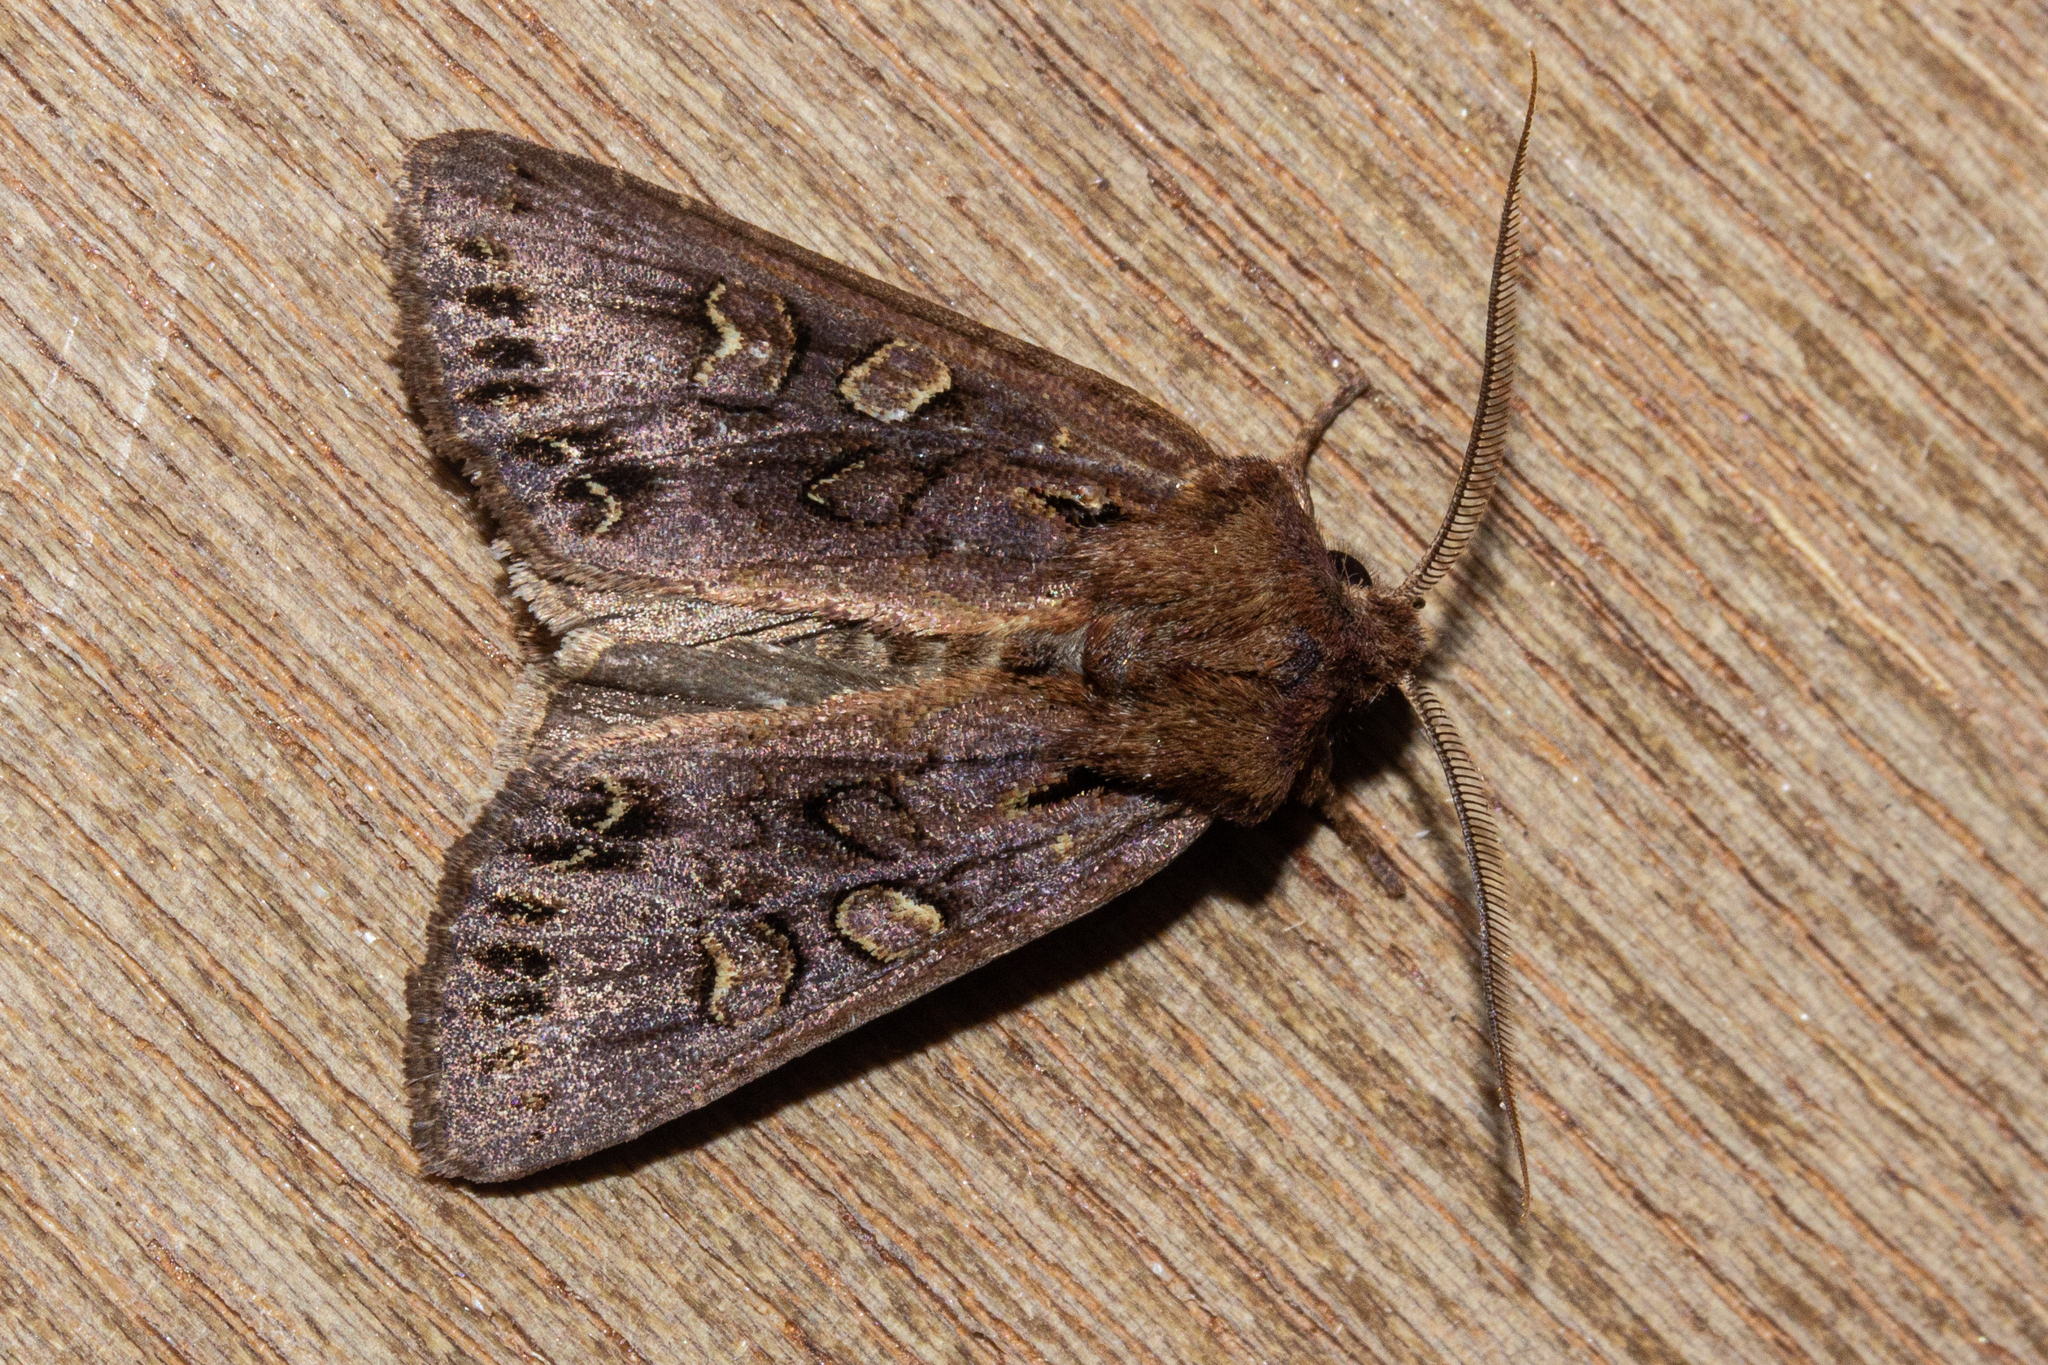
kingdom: Animalia
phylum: Arthropoda
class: Insecta
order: Lepidoptera
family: Noctuidae
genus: Ichneutica
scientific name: Ichneutica
